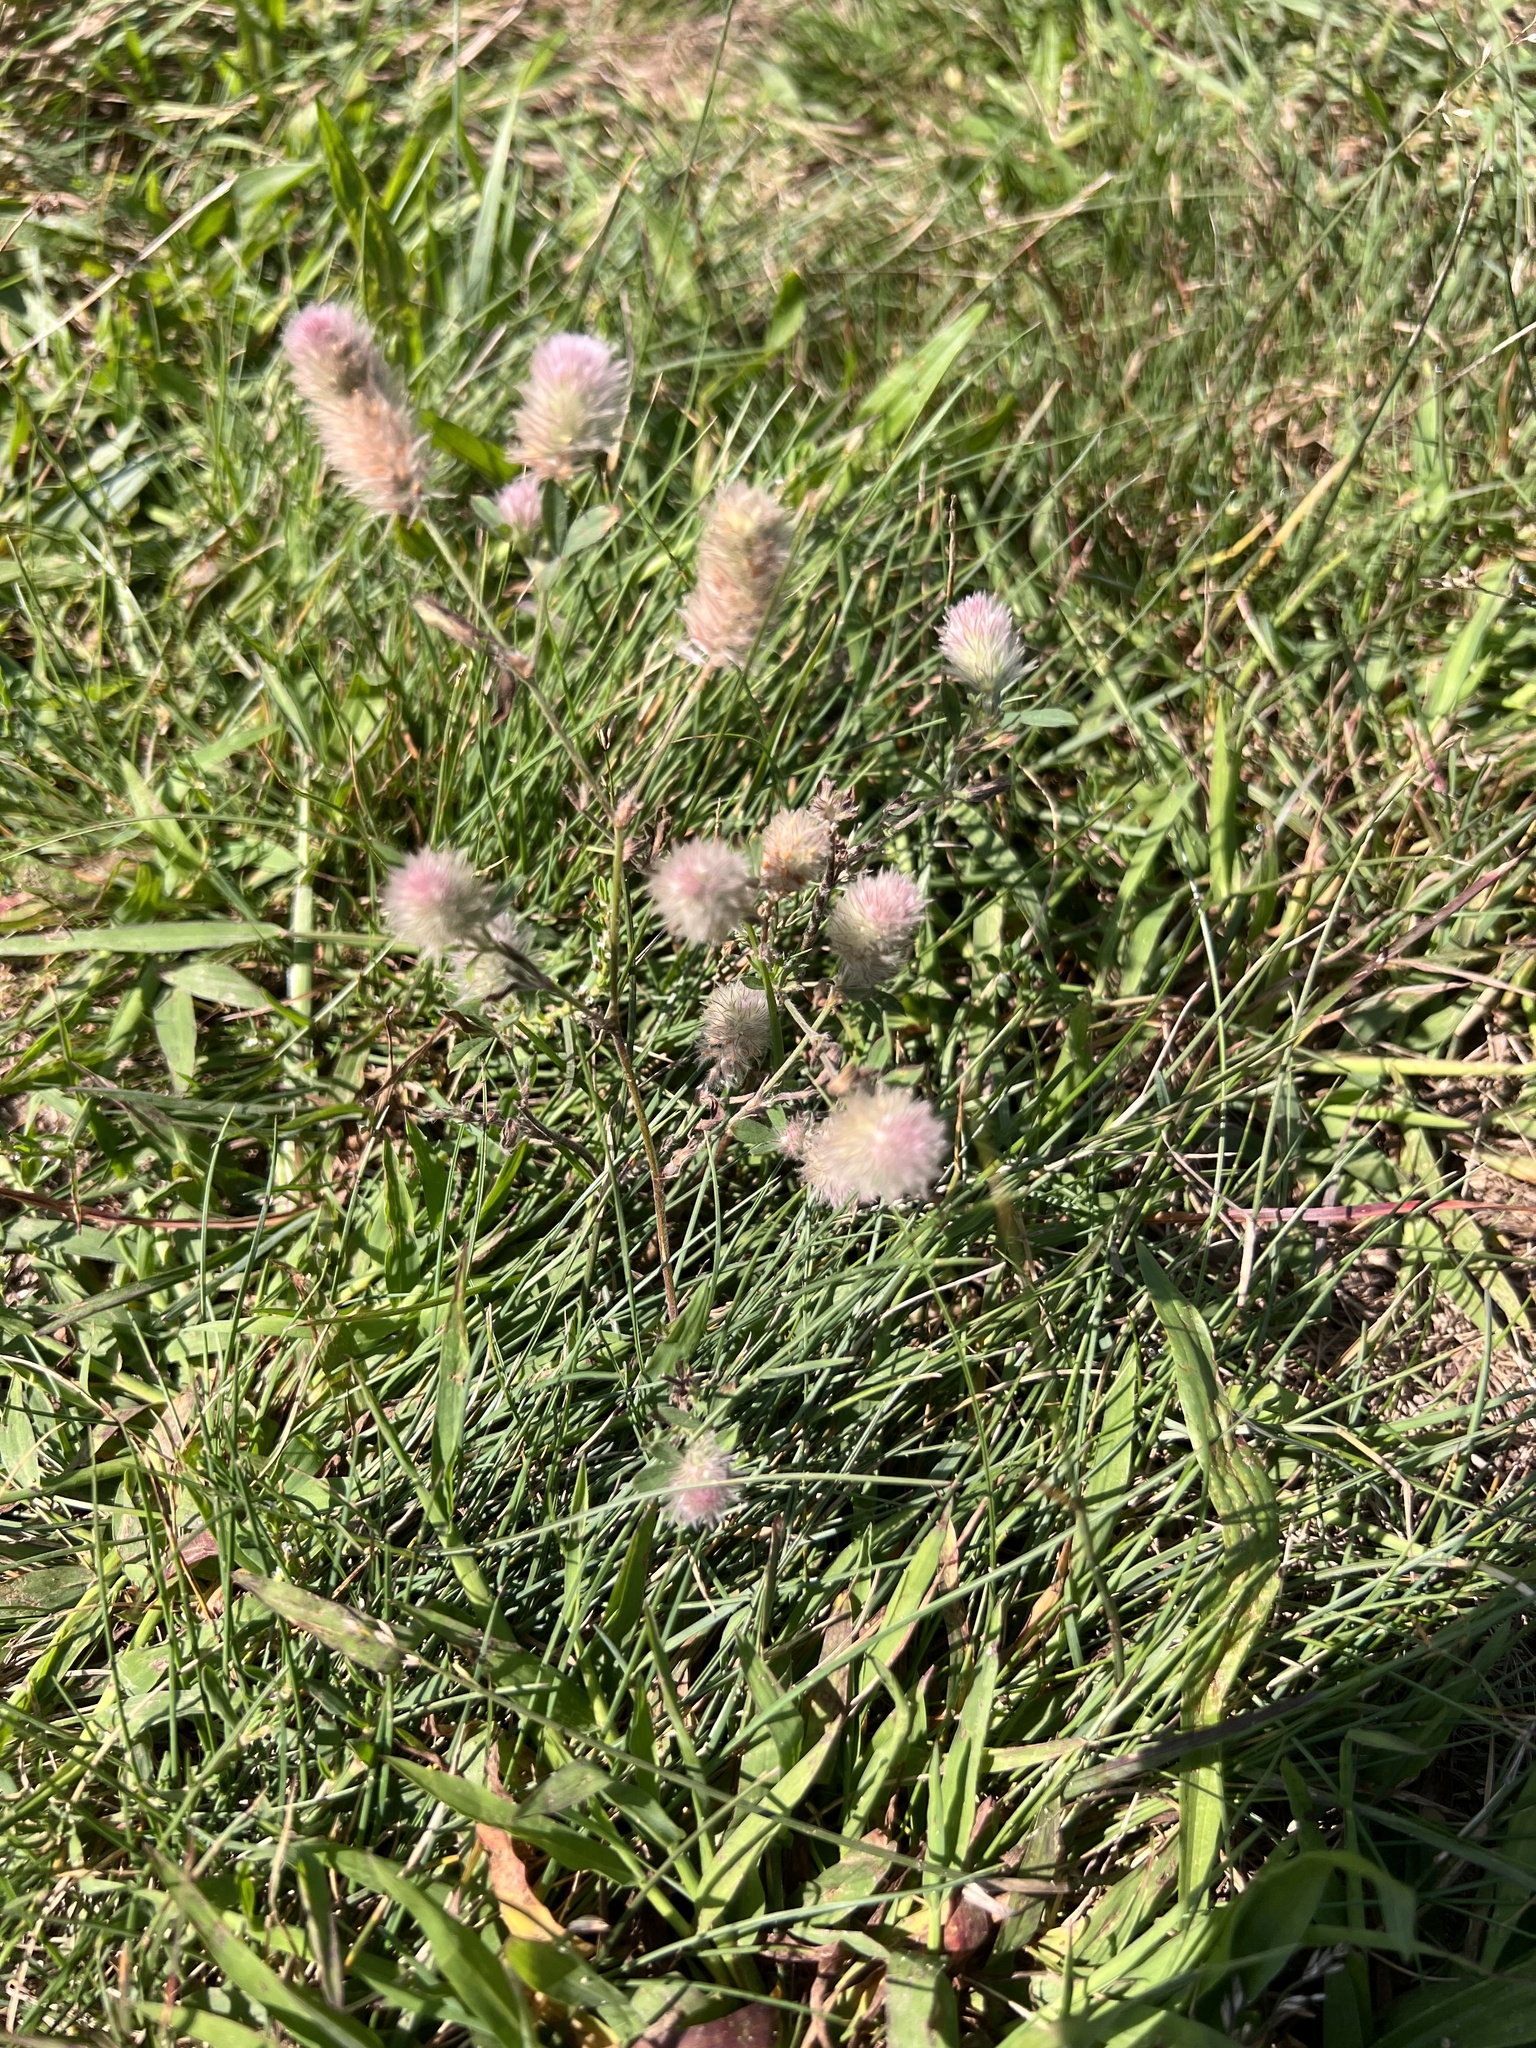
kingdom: Plantae
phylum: Tracheophyta
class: Magnoliopsida
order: Fabales
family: Fabaceae
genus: Trifolium
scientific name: Trifolium arvense
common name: Hare's-foot clover
